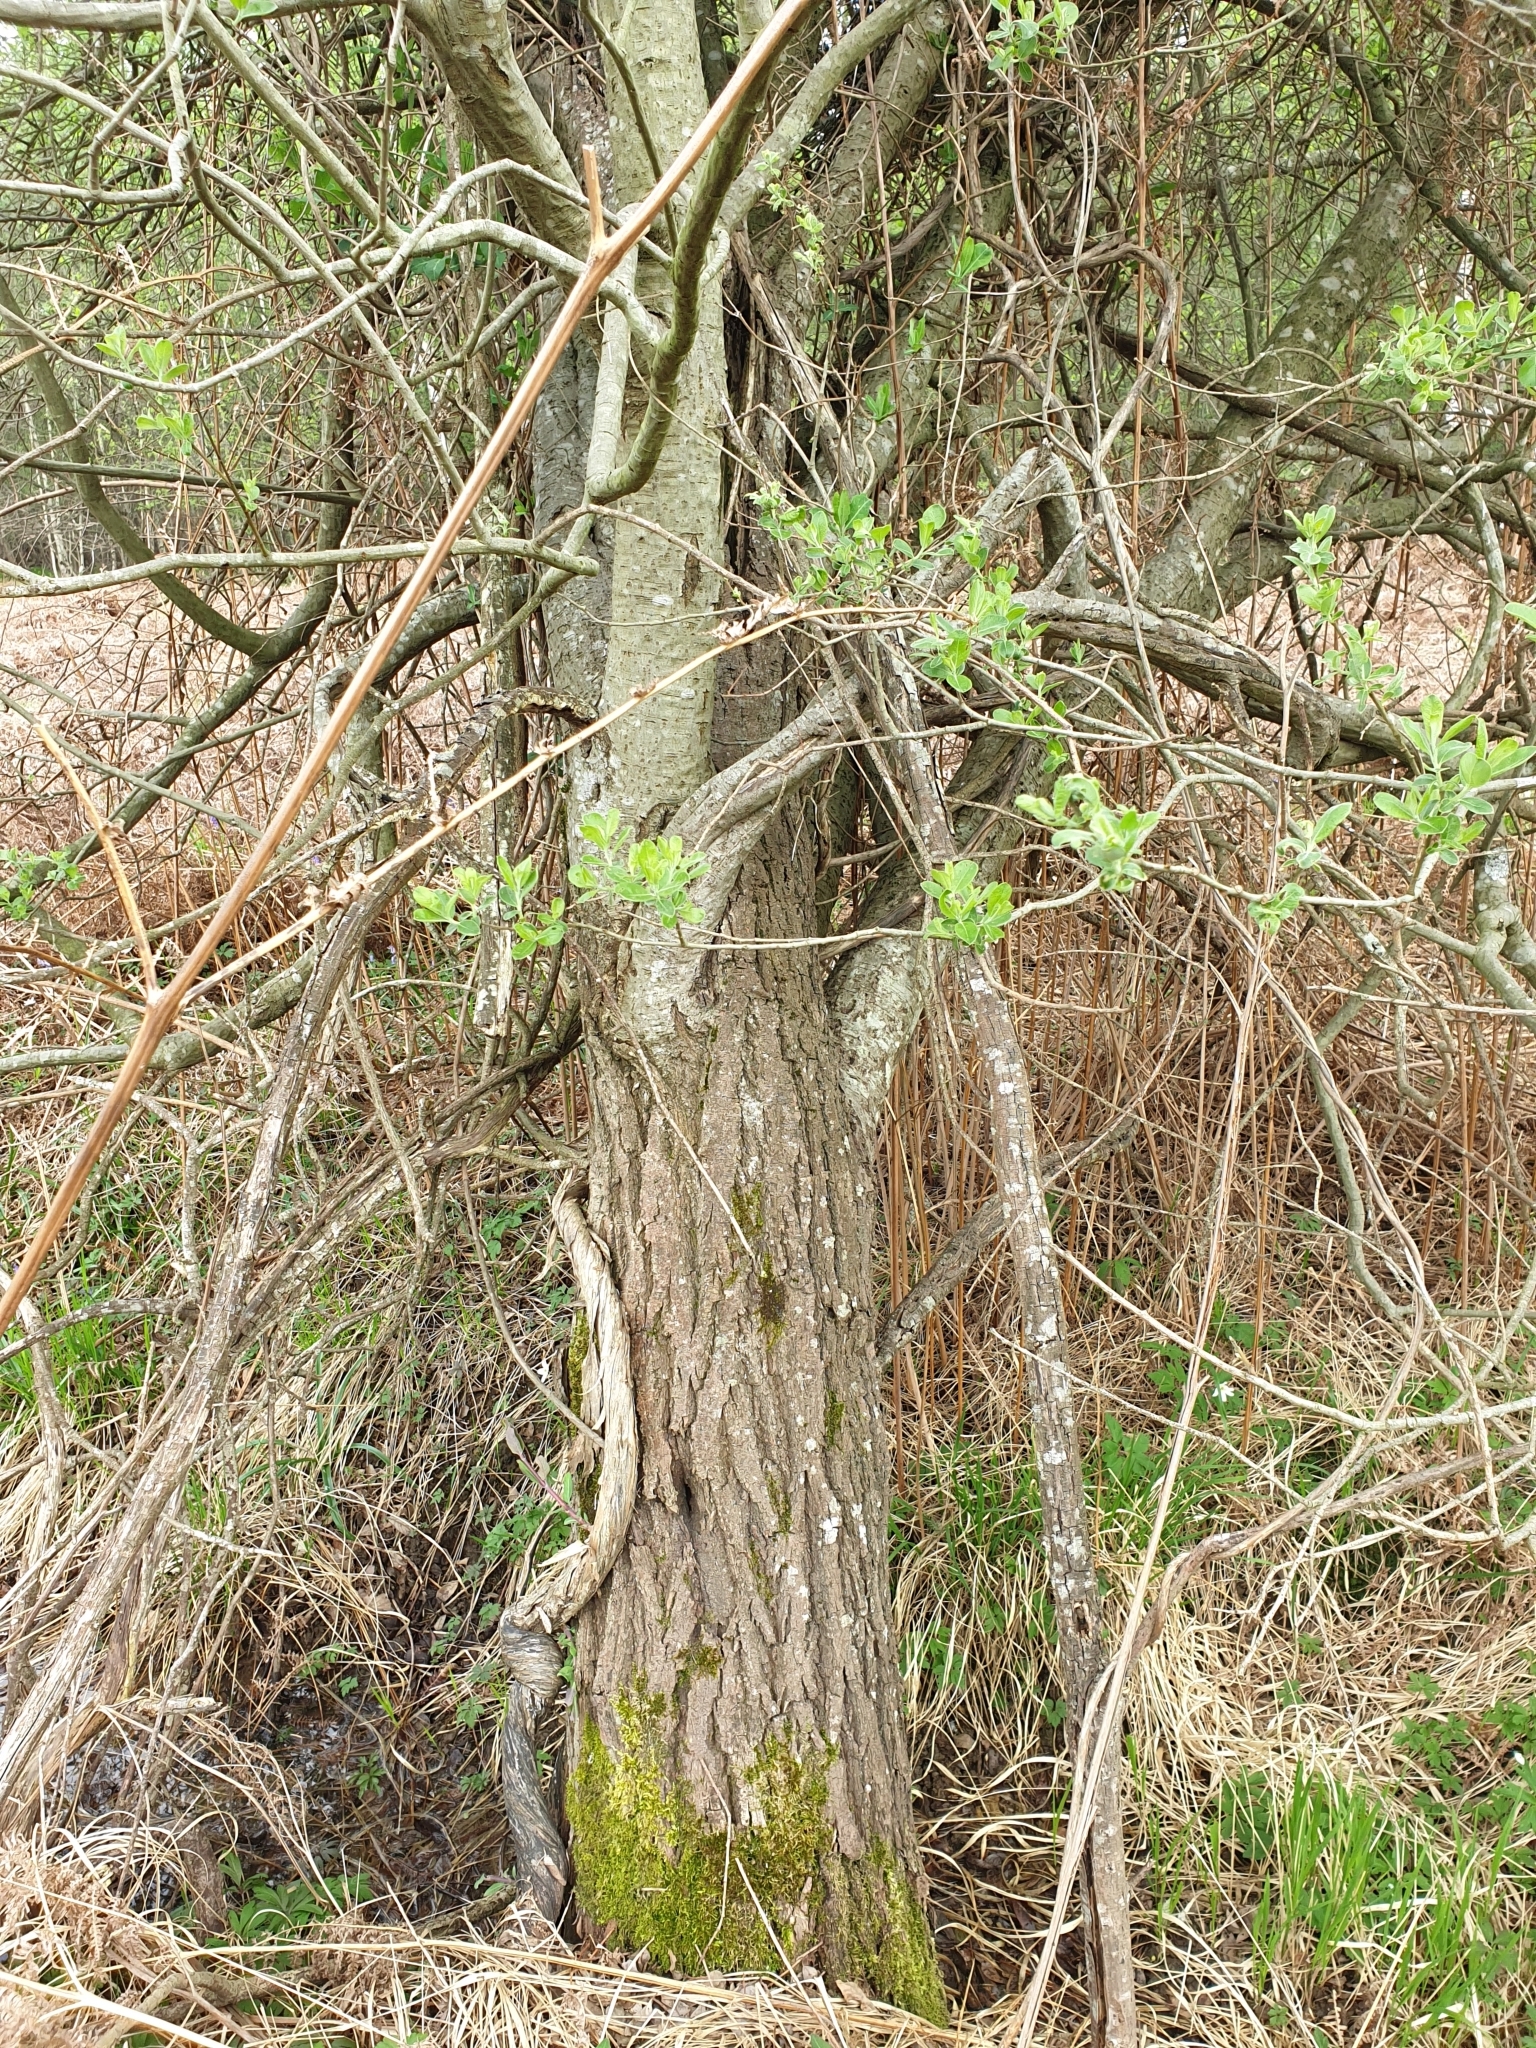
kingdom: Plantae
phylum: Tracheophyta
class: Magnoliopsida
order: Malpighiales
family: Salicaceae
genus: Salix
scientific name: Salix caprea
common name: Goat willow
